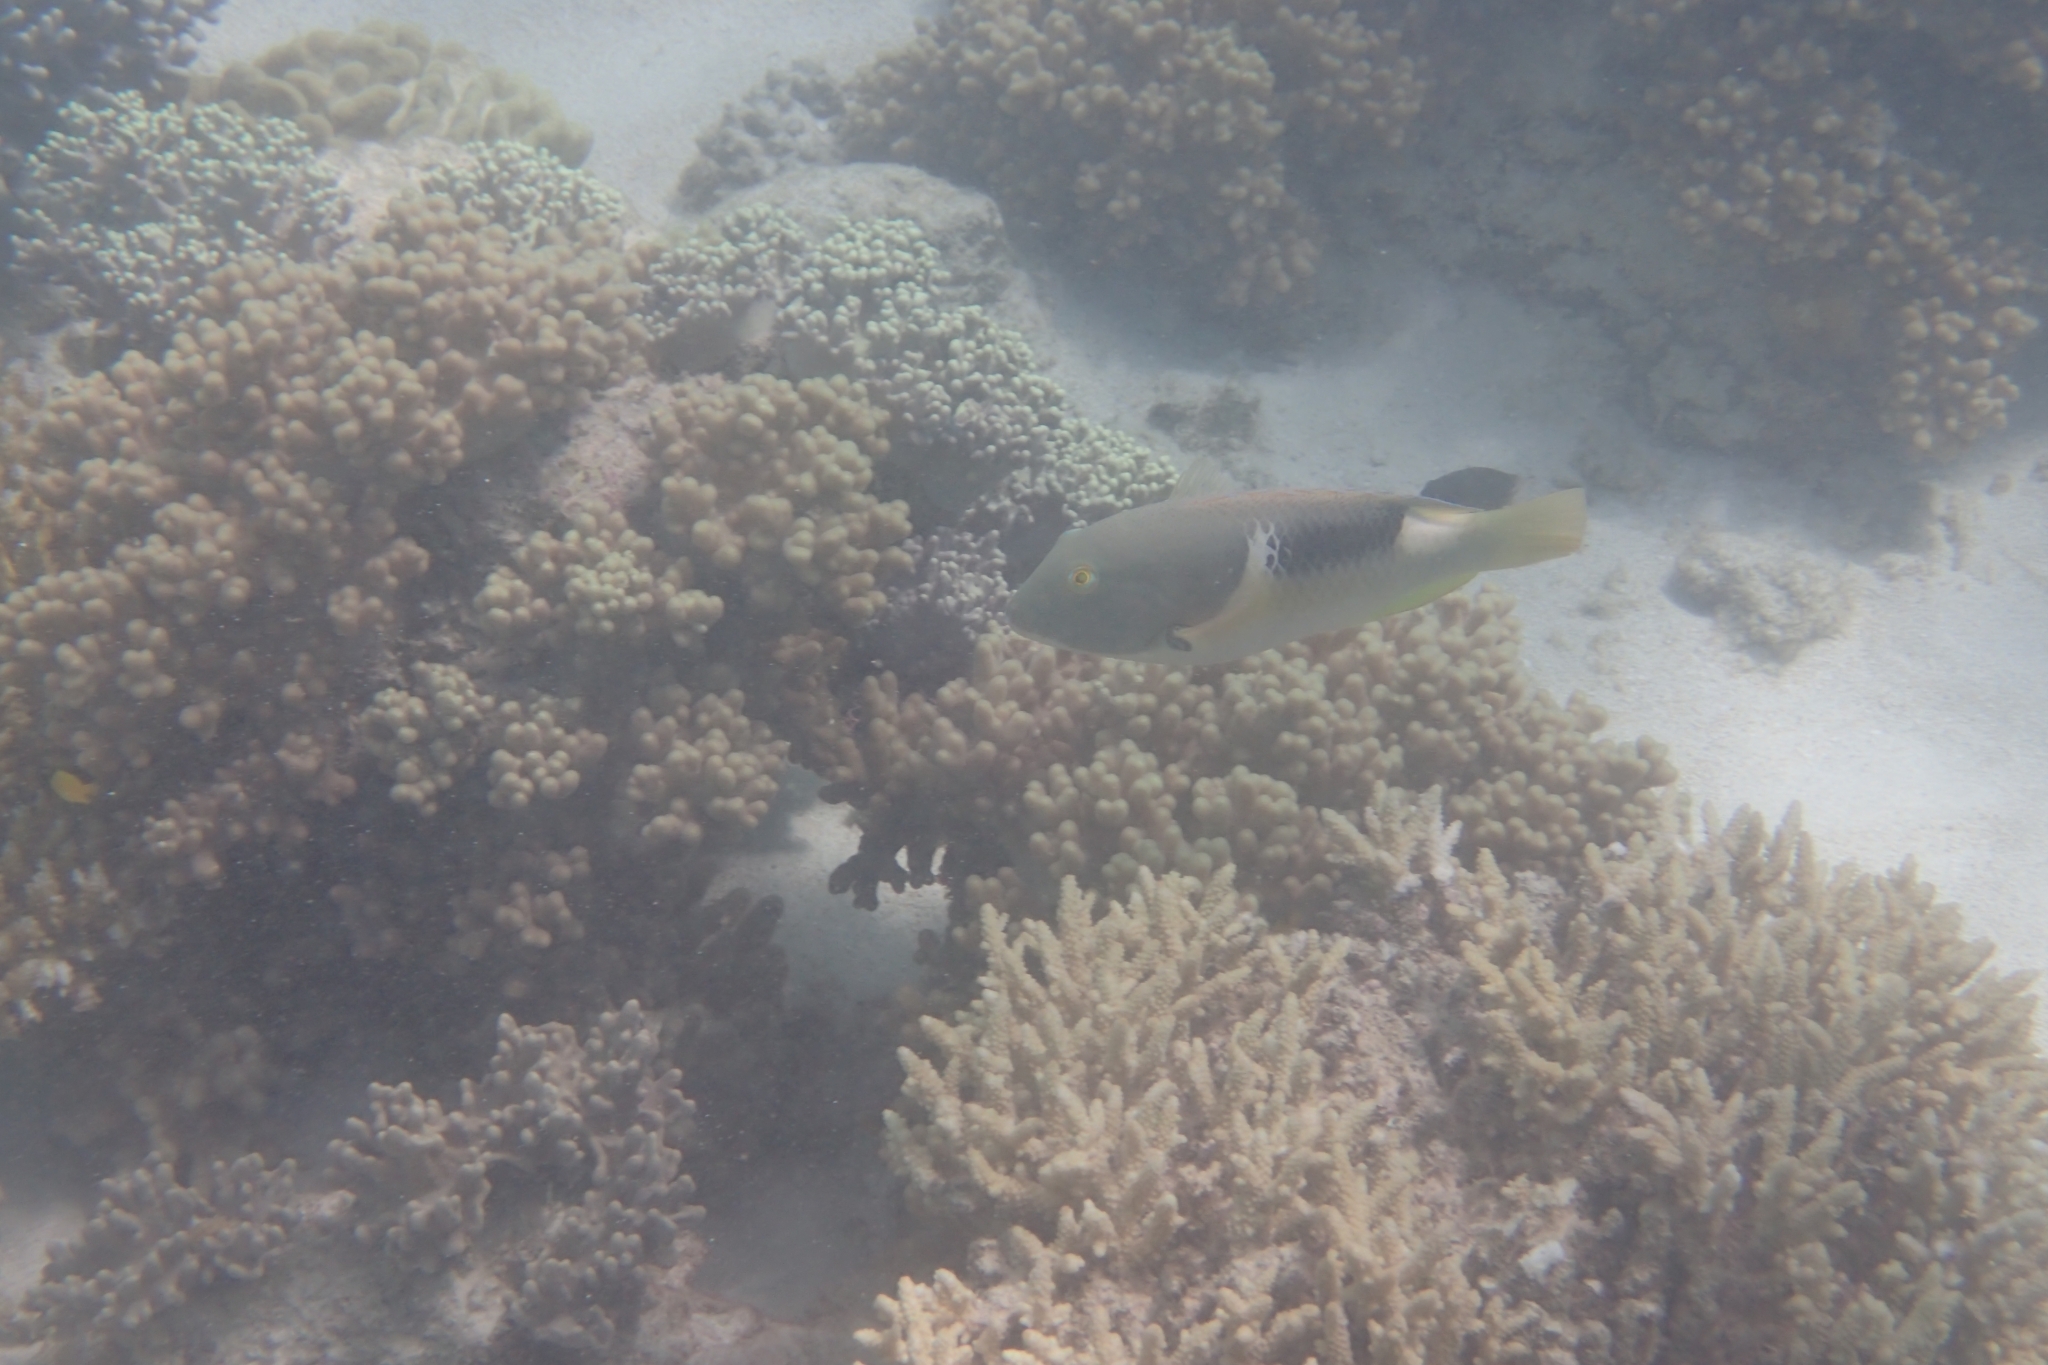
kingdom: Animalia
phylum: Chordata
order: Perciformes
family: Labridae
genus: Choerodon
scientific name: Choerodon anchorago
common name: Anchor tuskfish
